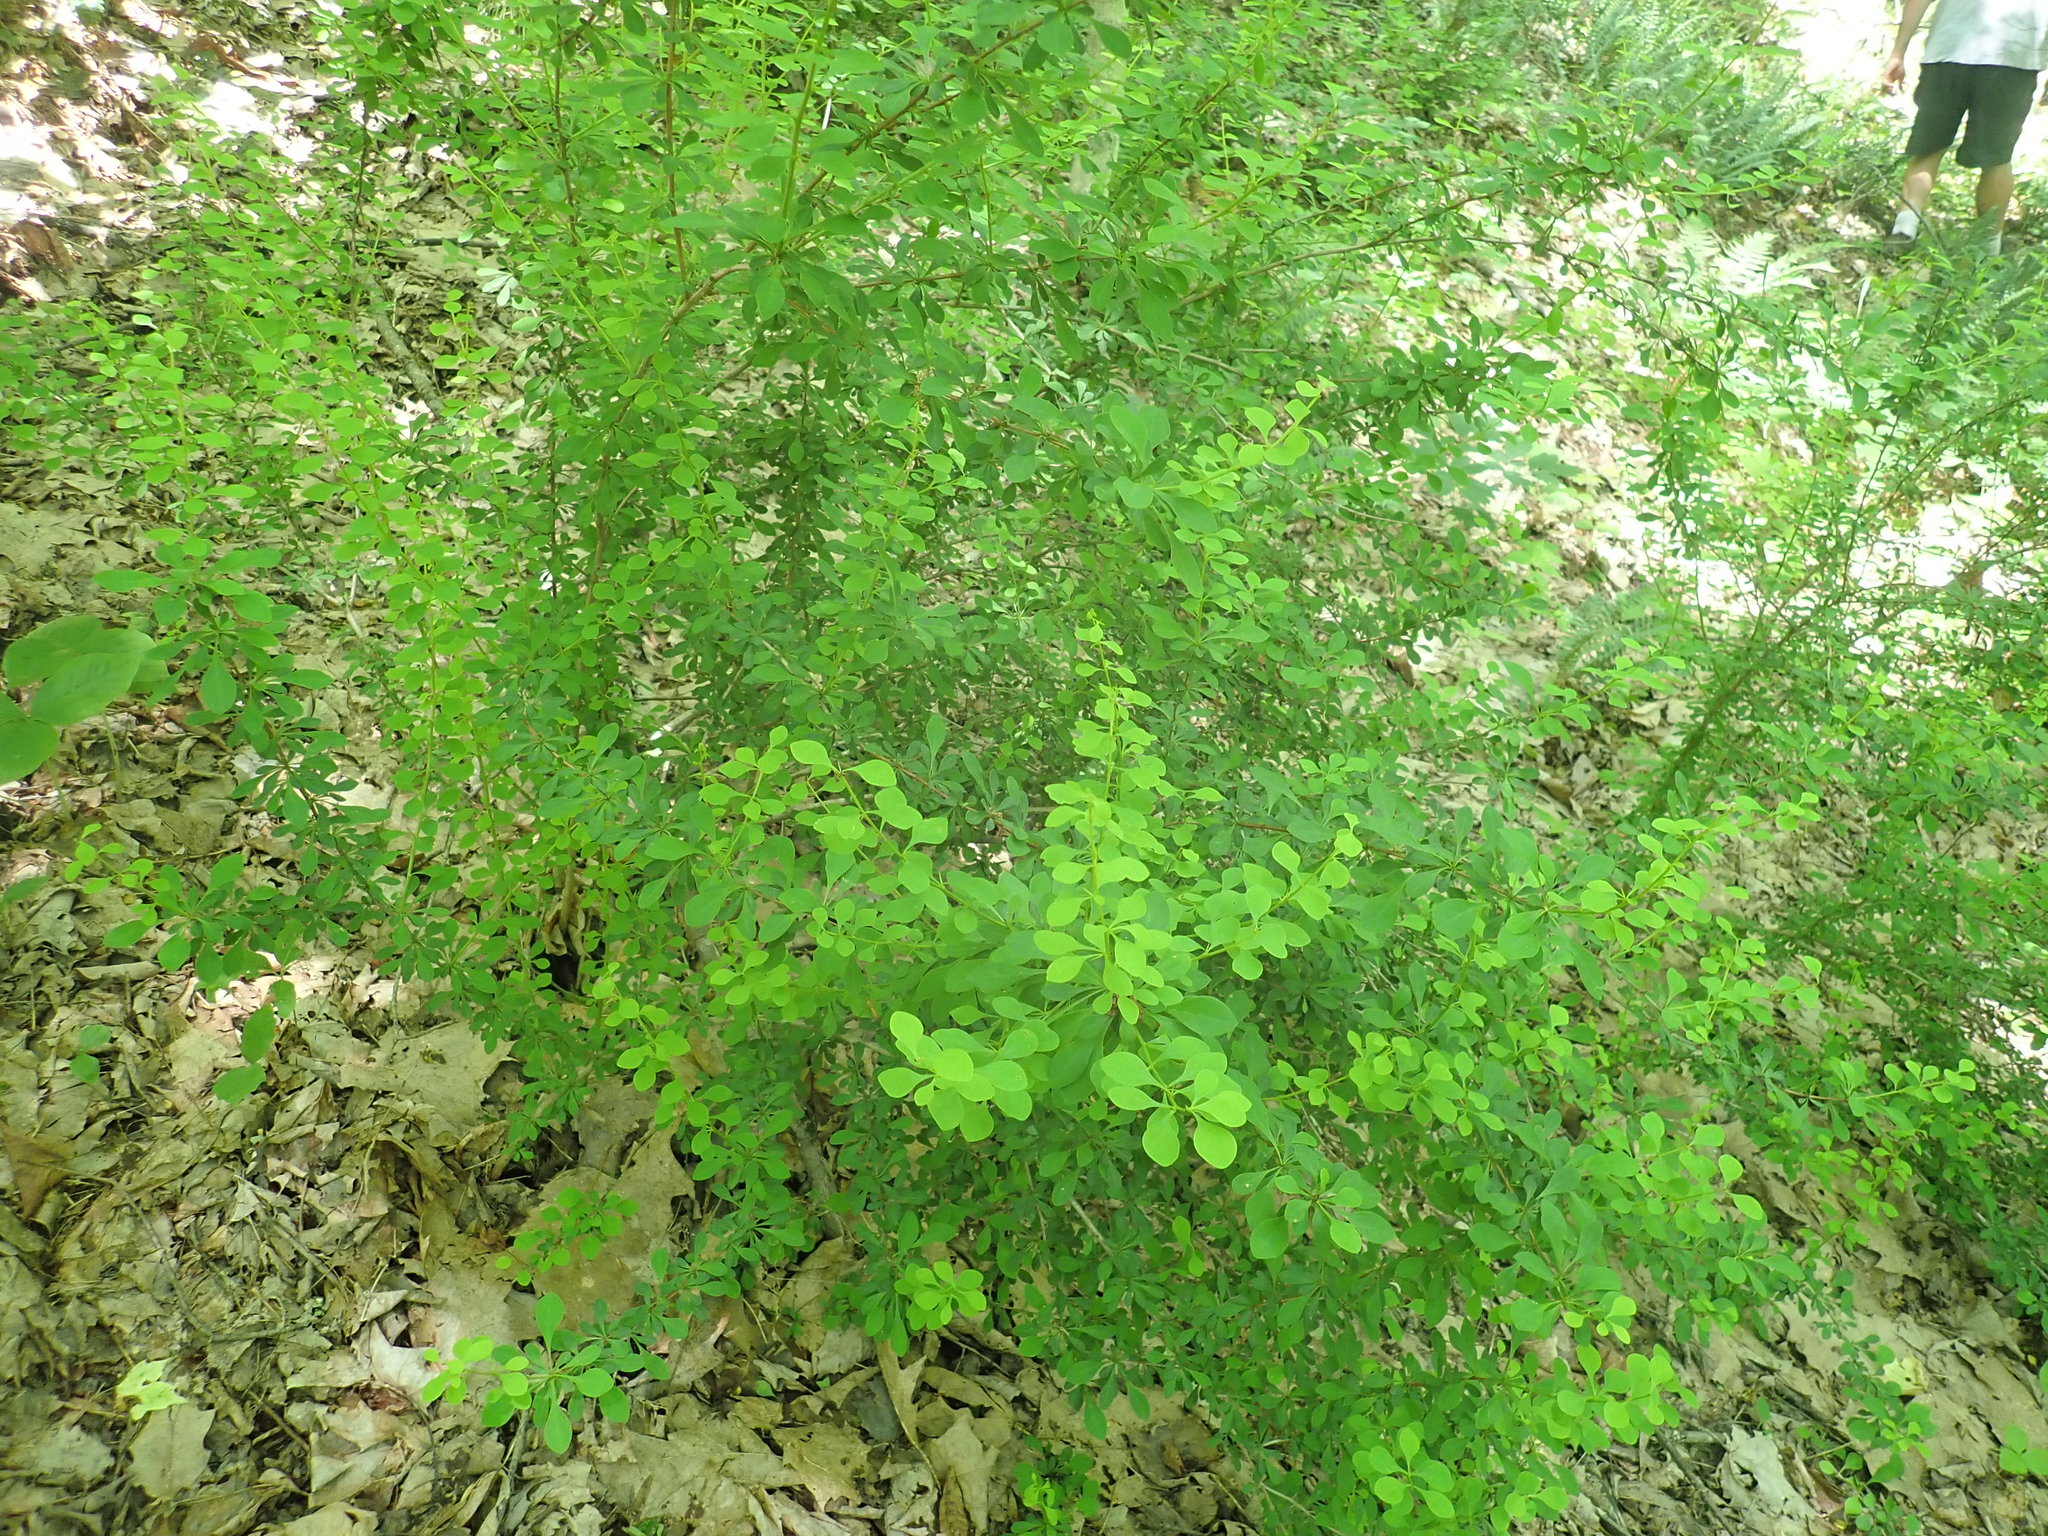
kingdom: Plantae
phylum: Tracheophyta
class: Magnoliopsida
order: Ranunculales
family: Berberidaceae
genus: Berberis
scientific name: Berberis thunbergii
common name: Japanese barberry
